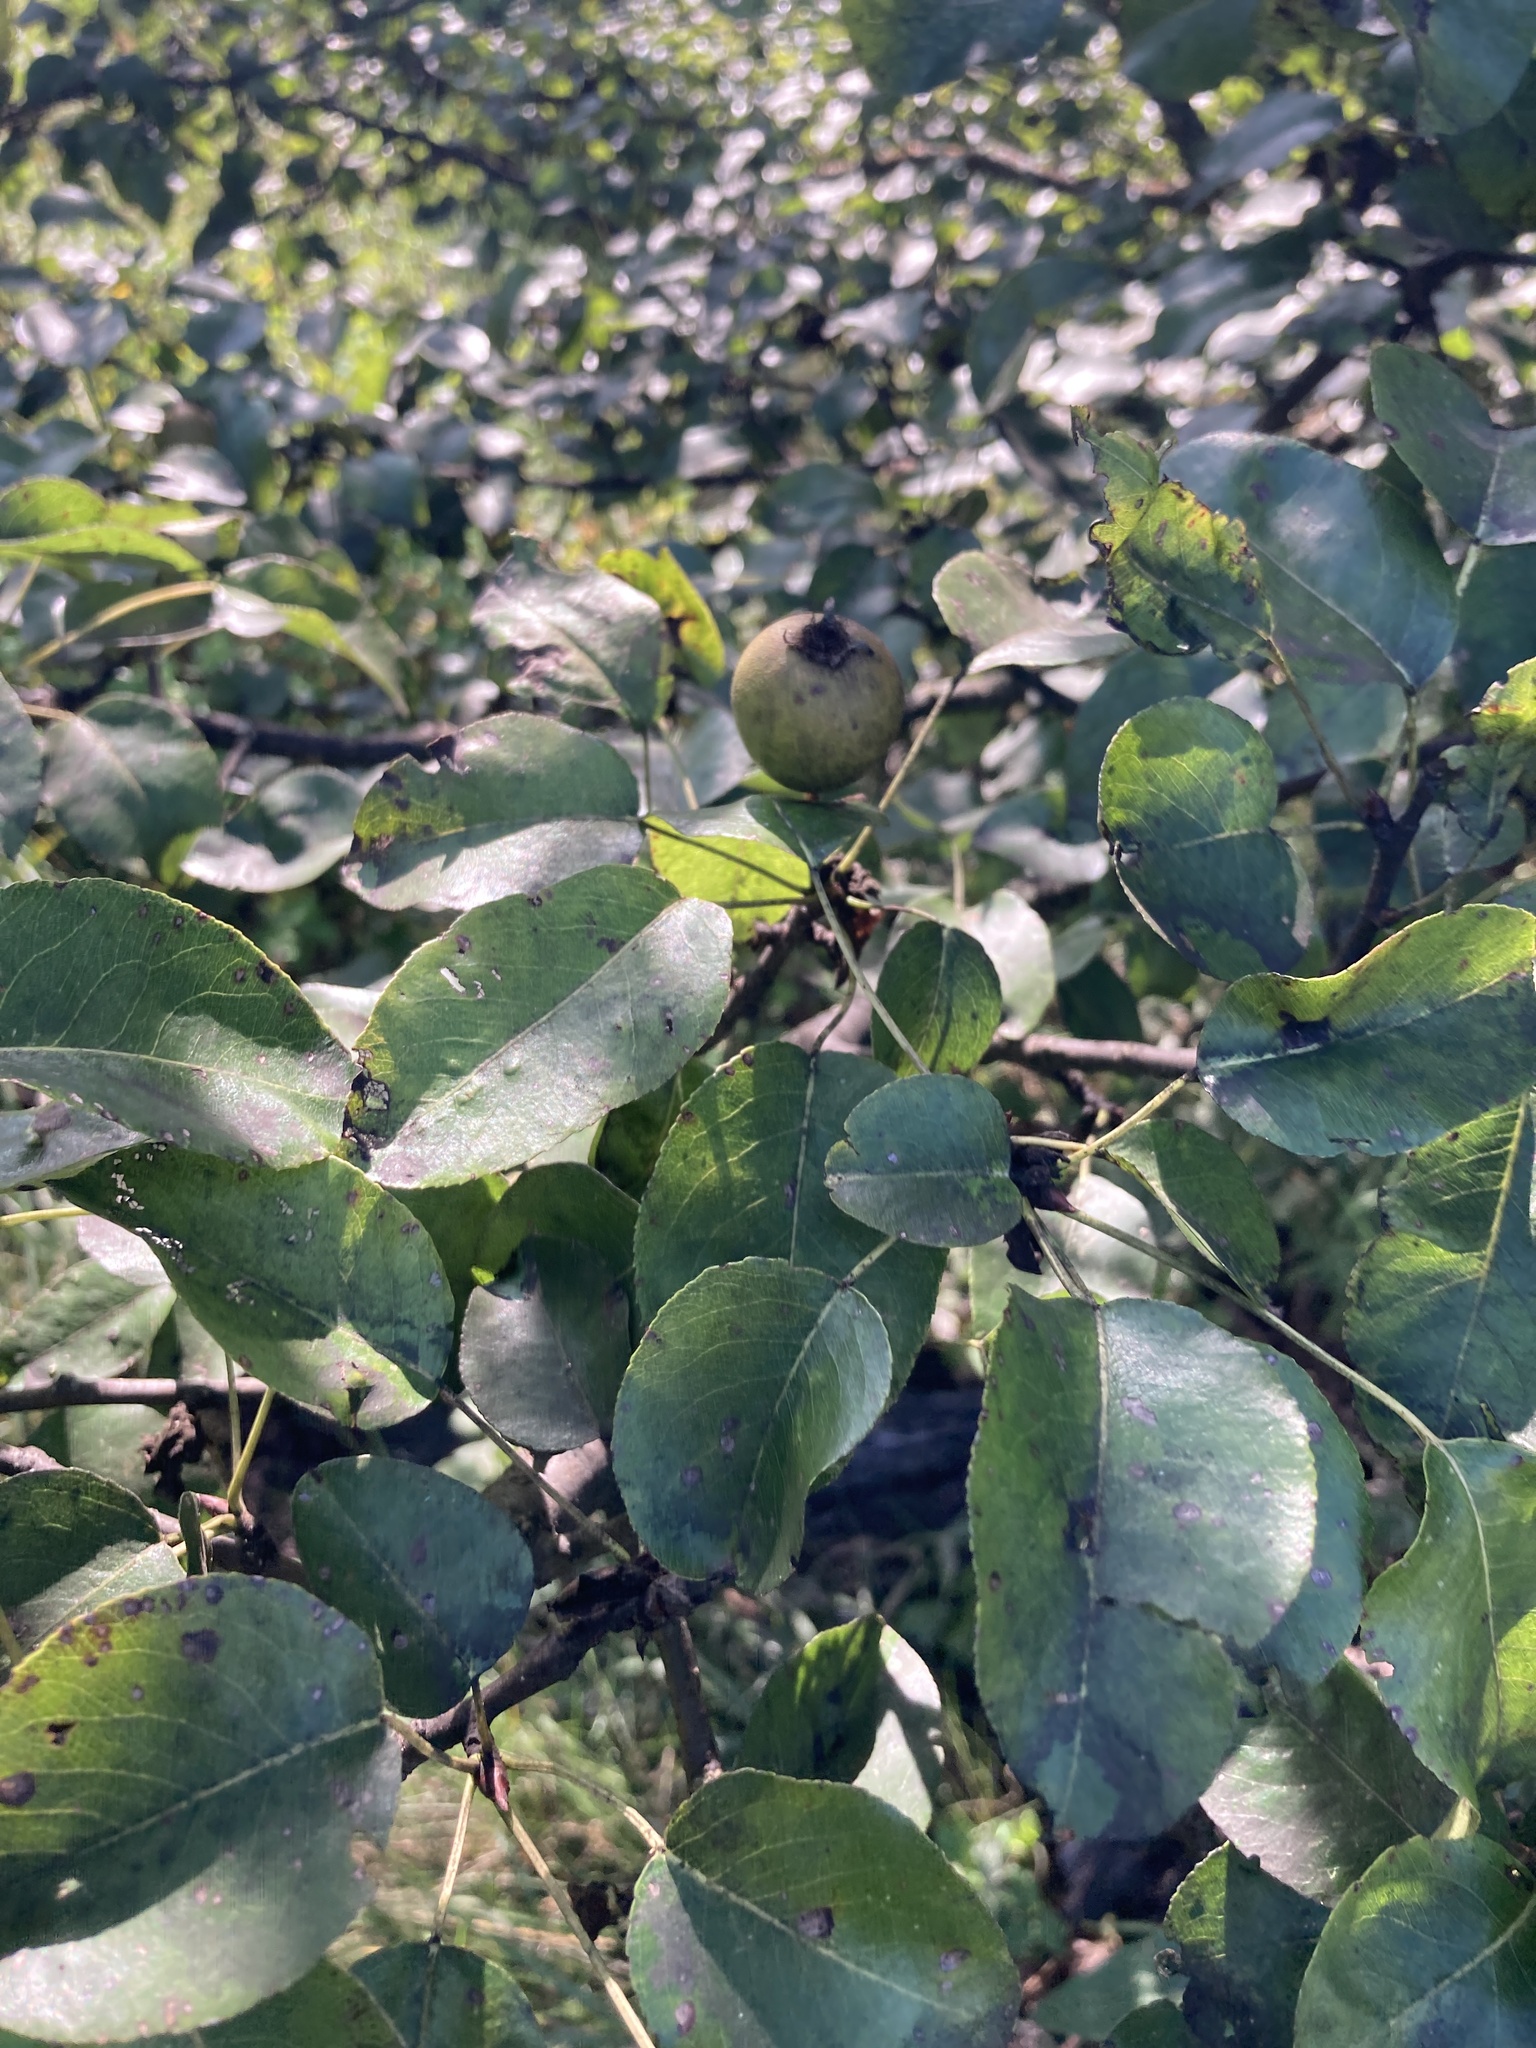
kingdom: Plantae
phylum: Tracheophyta
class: Magnoliopsida
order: Rosales
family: Rosaceae
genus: Pyrus
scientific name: Pyrus communis
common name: Pear
